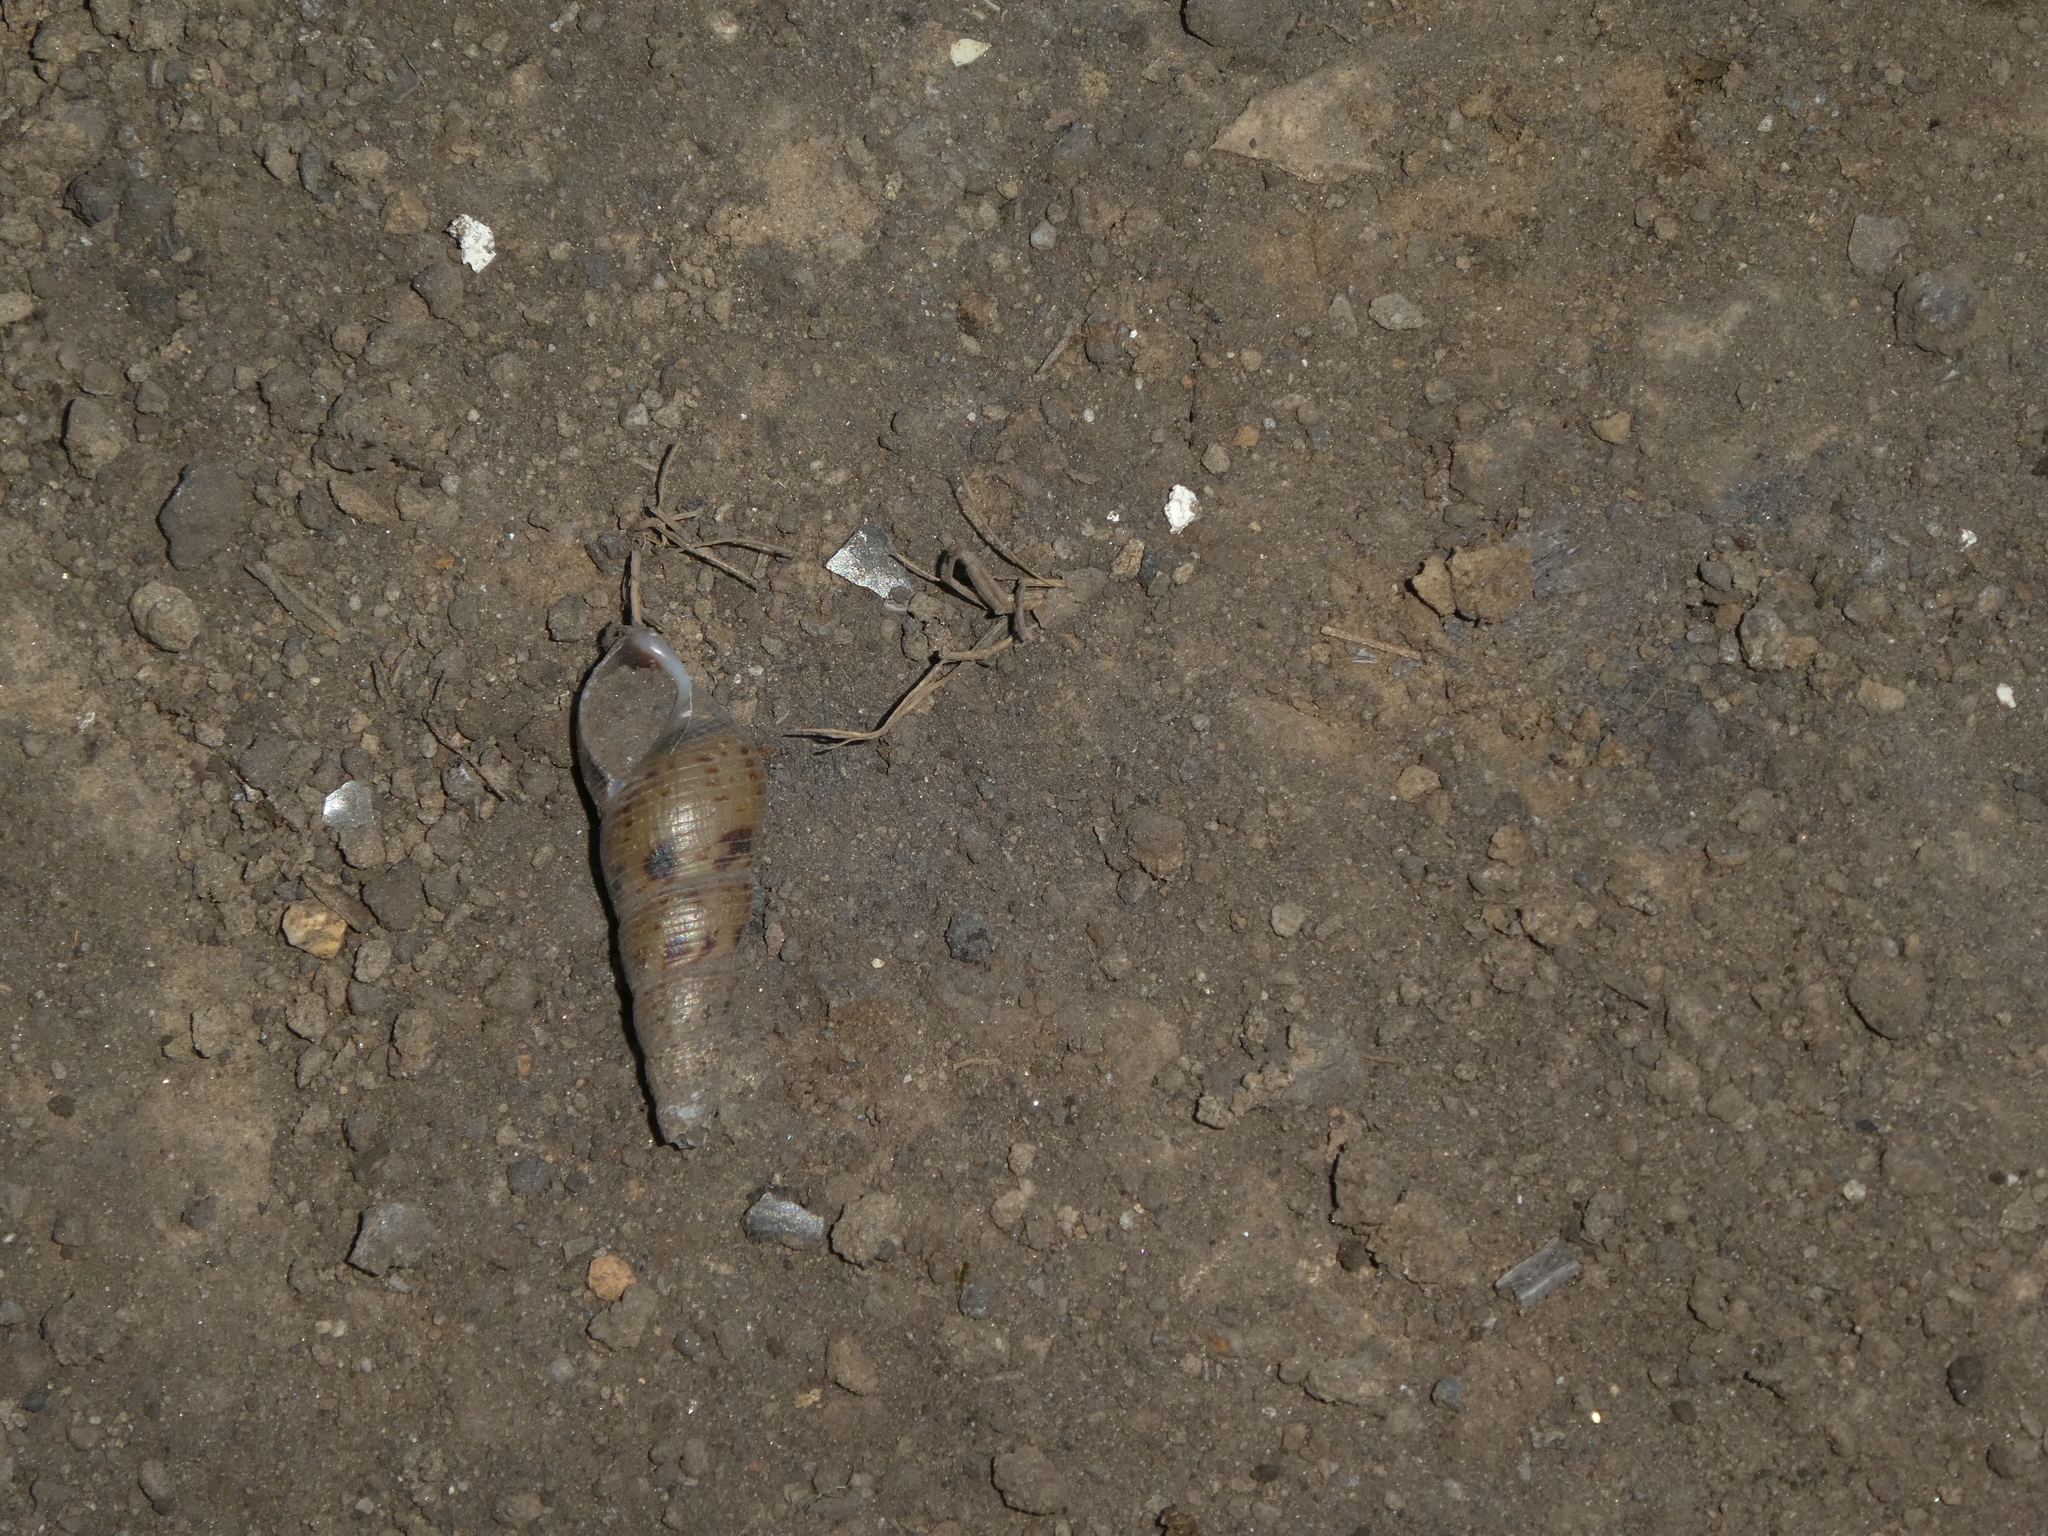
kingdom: Animalia
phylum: Mollusca
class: Gastropoda
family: Thiaridae
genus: Melanoides
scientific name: Melanoides tuberculata
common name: Red-rim melania
